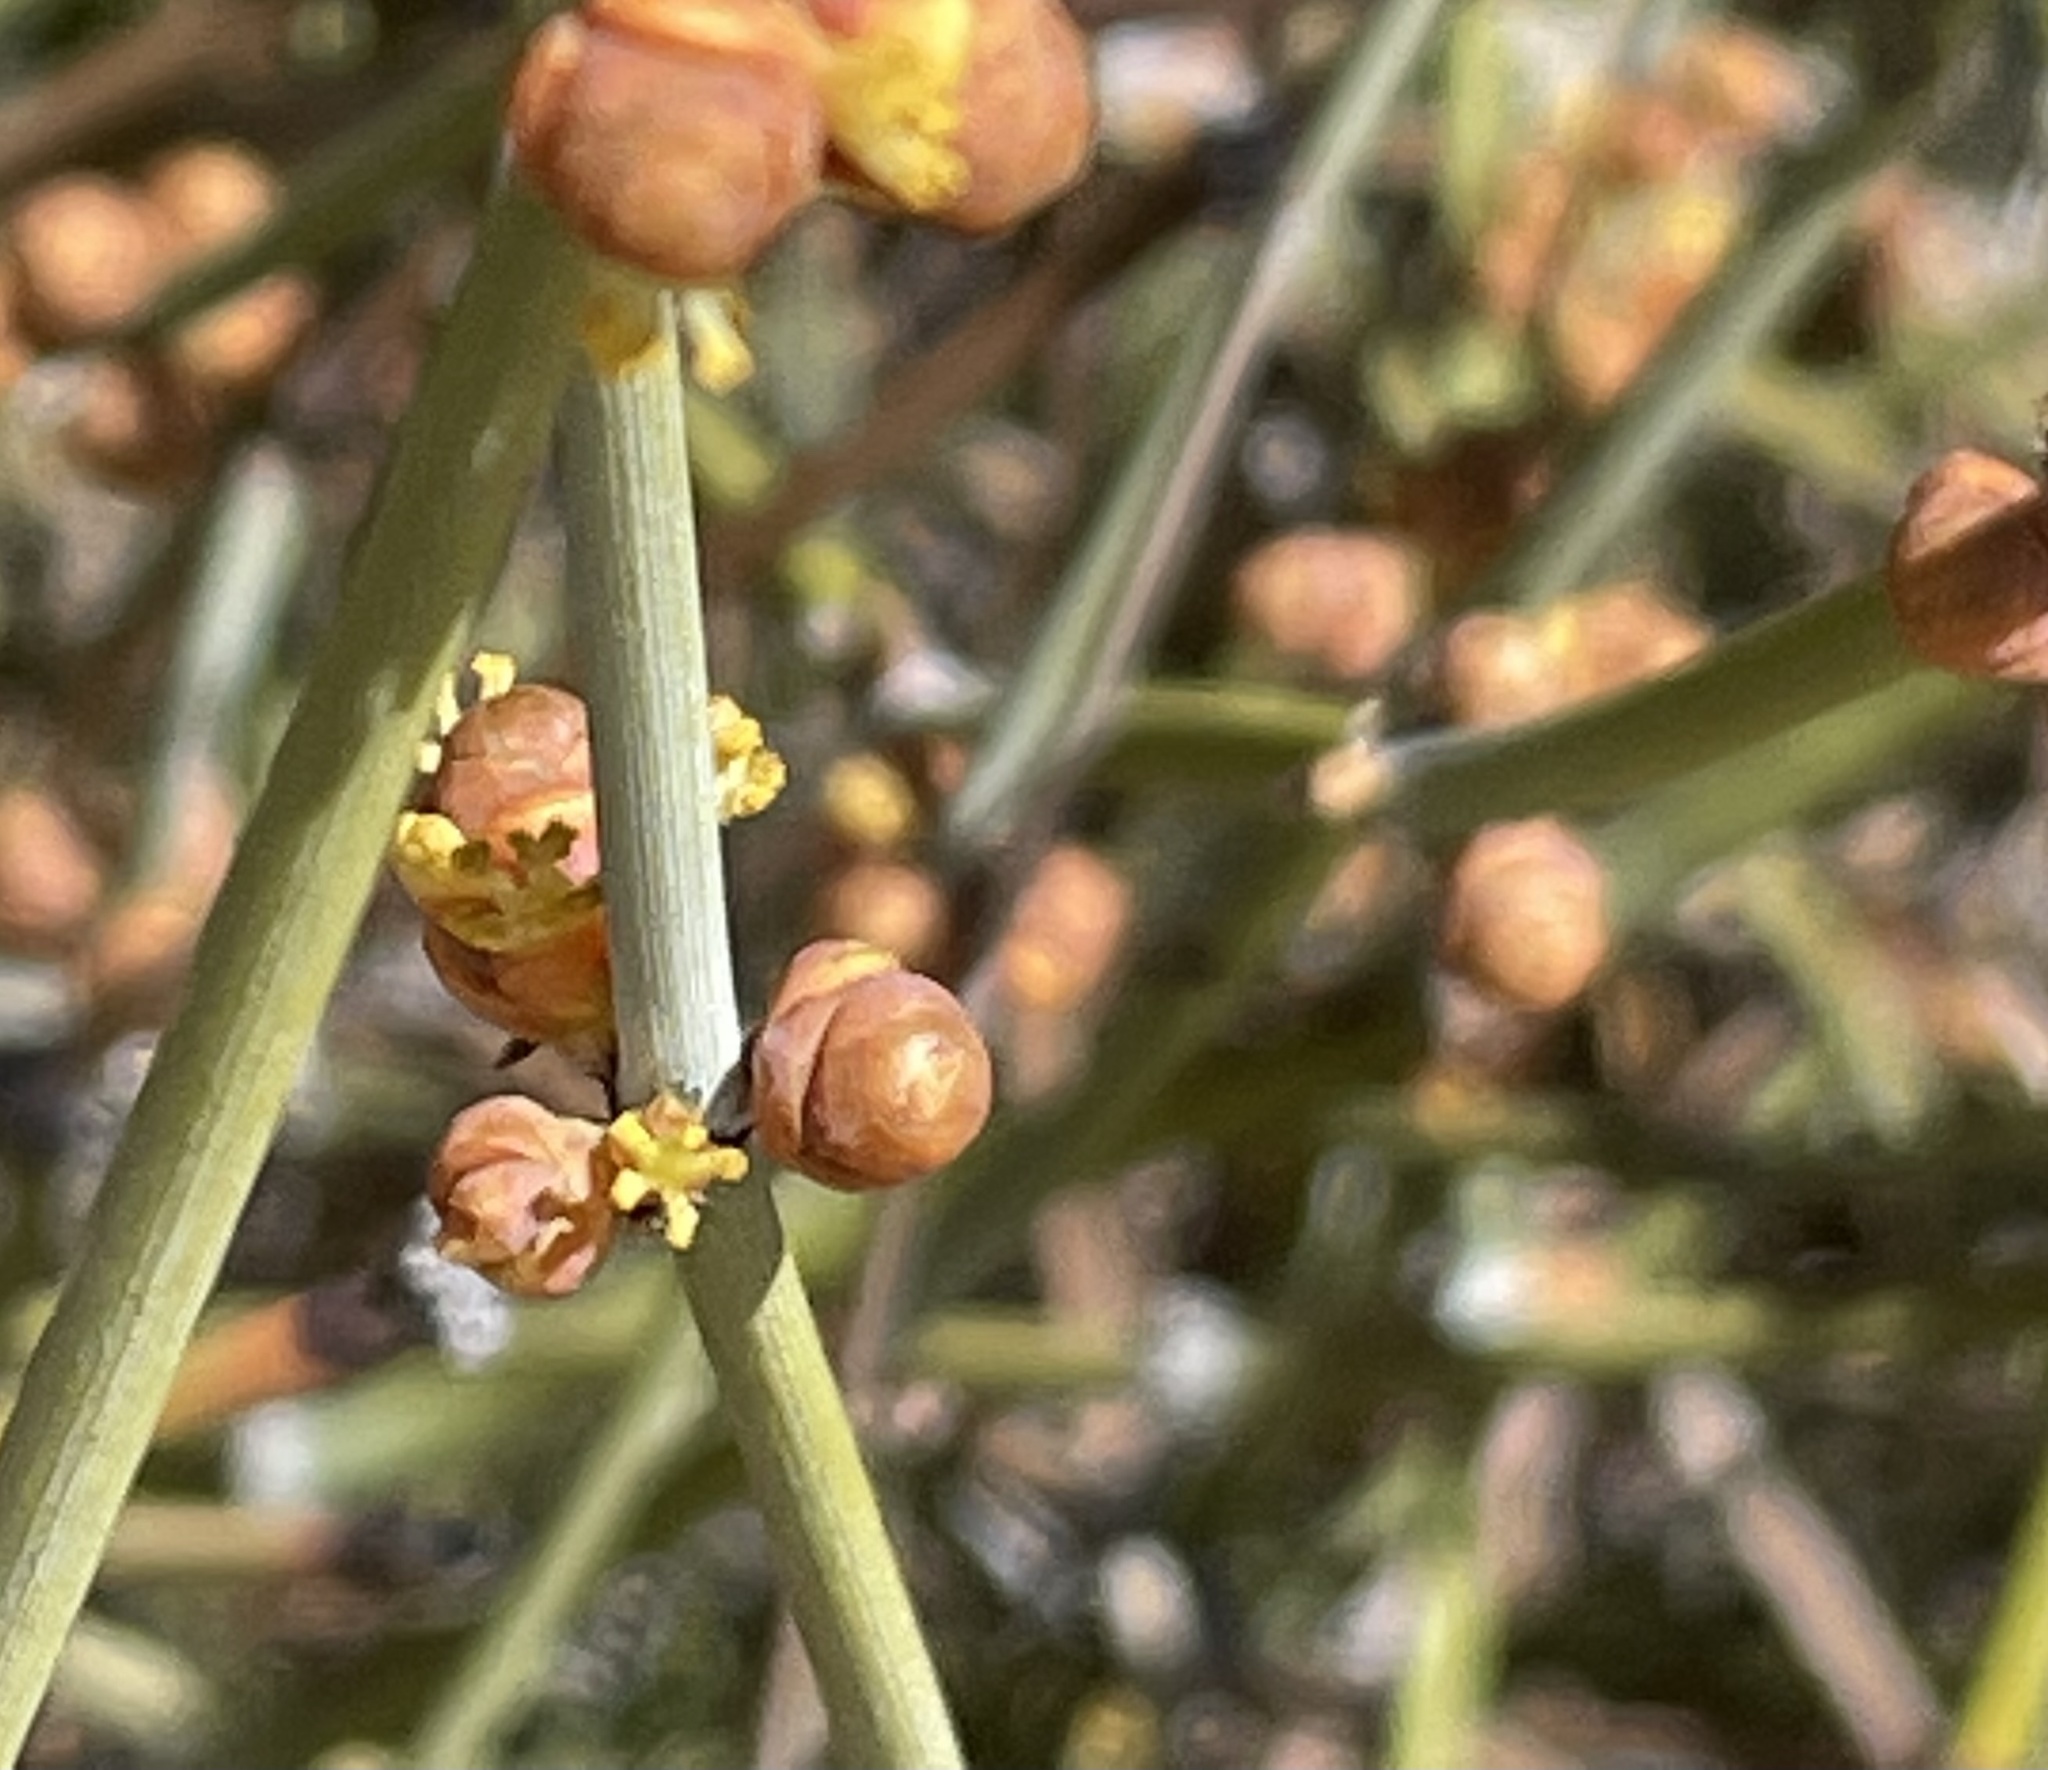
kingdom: Plantae
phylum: Tracheophyta
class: Gnetopsida
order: Ephedrales
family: Ephedraceae
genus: Ephedra
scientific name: Ephedra californica
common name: California ephedra
